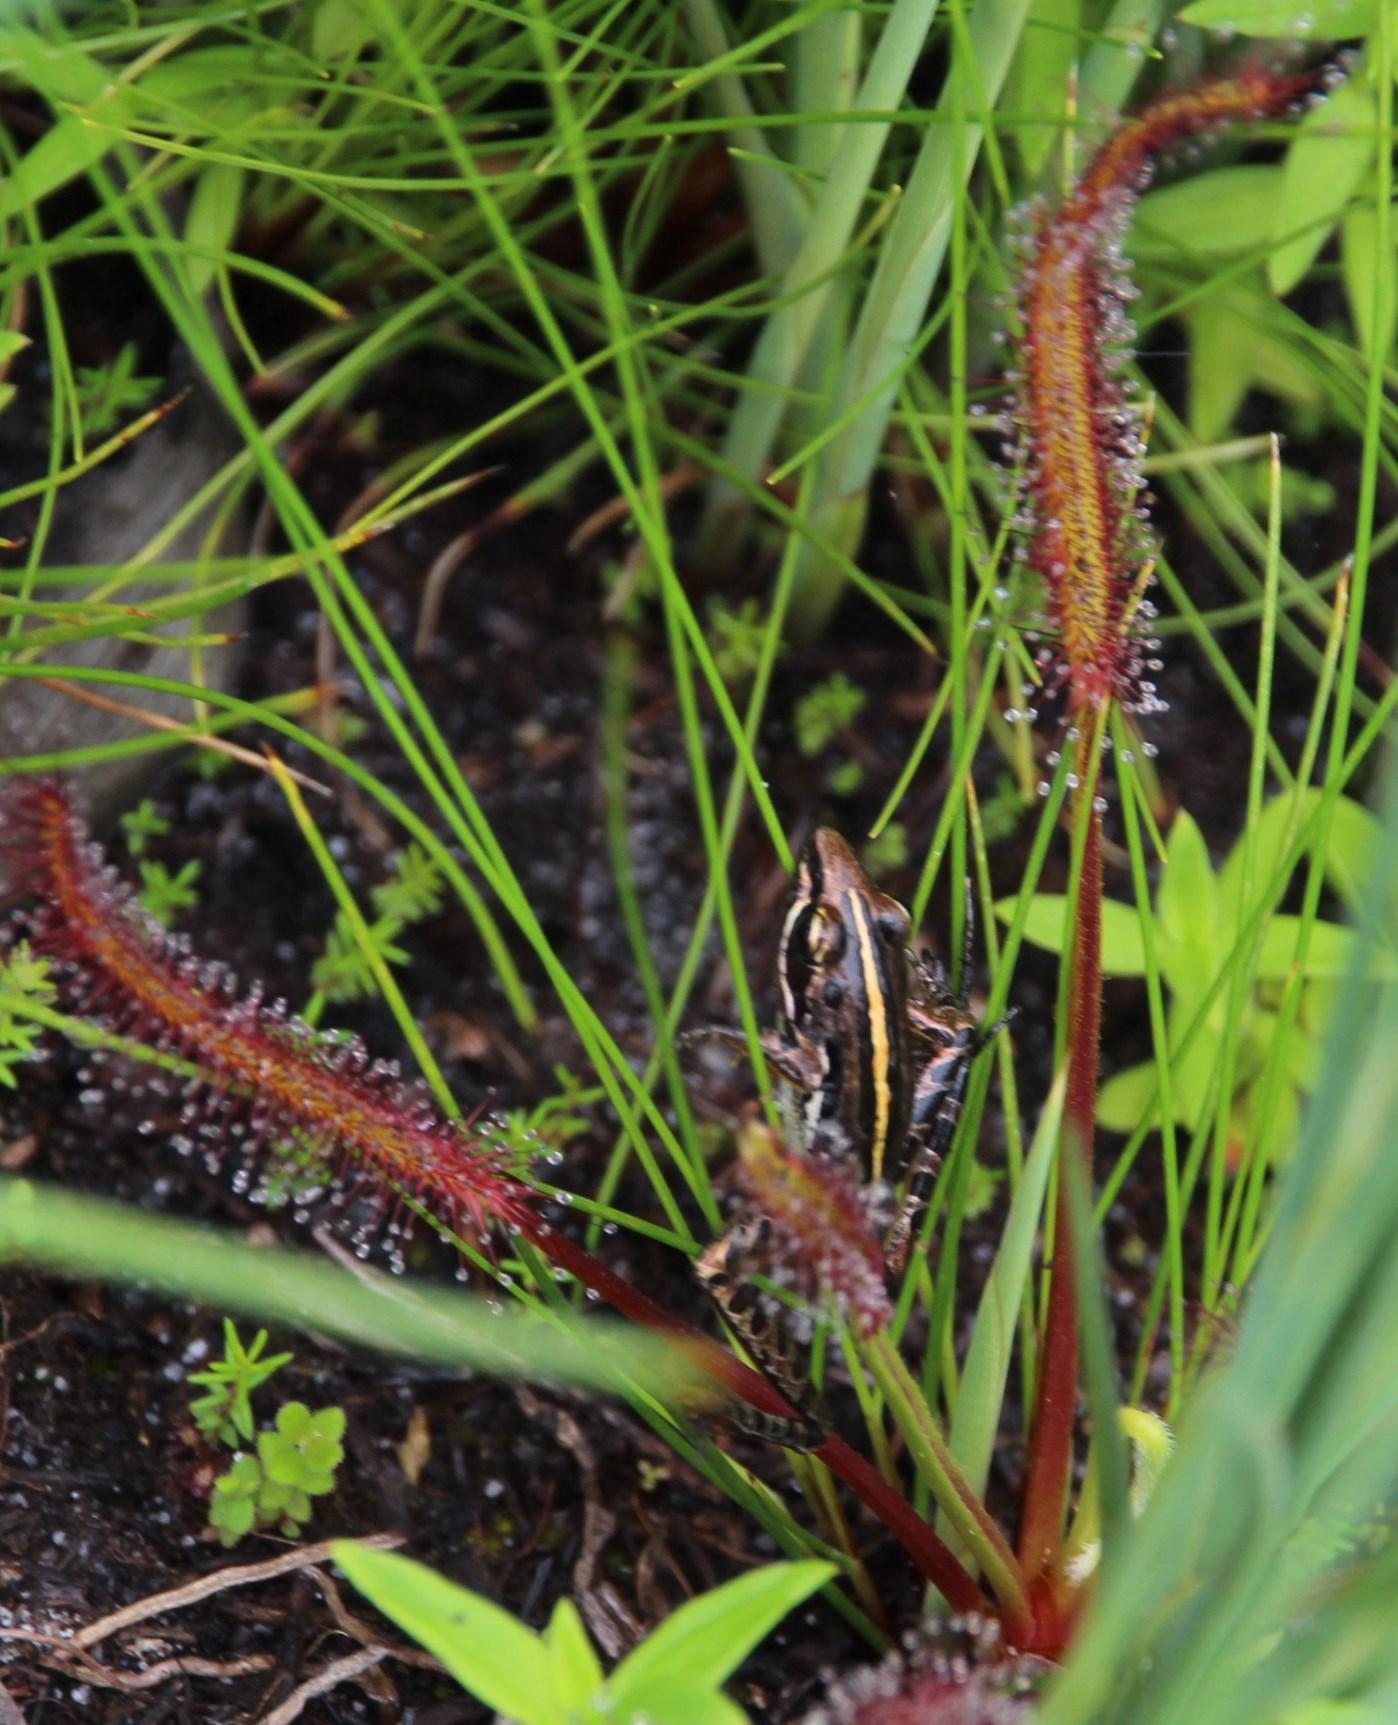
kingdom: Animalia
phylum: Chordata
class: Amphibia
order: Anura
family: Pyxicephalidae
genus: Strongylopus
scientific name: Strongylopus bonaespei
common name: Banded stream frog
